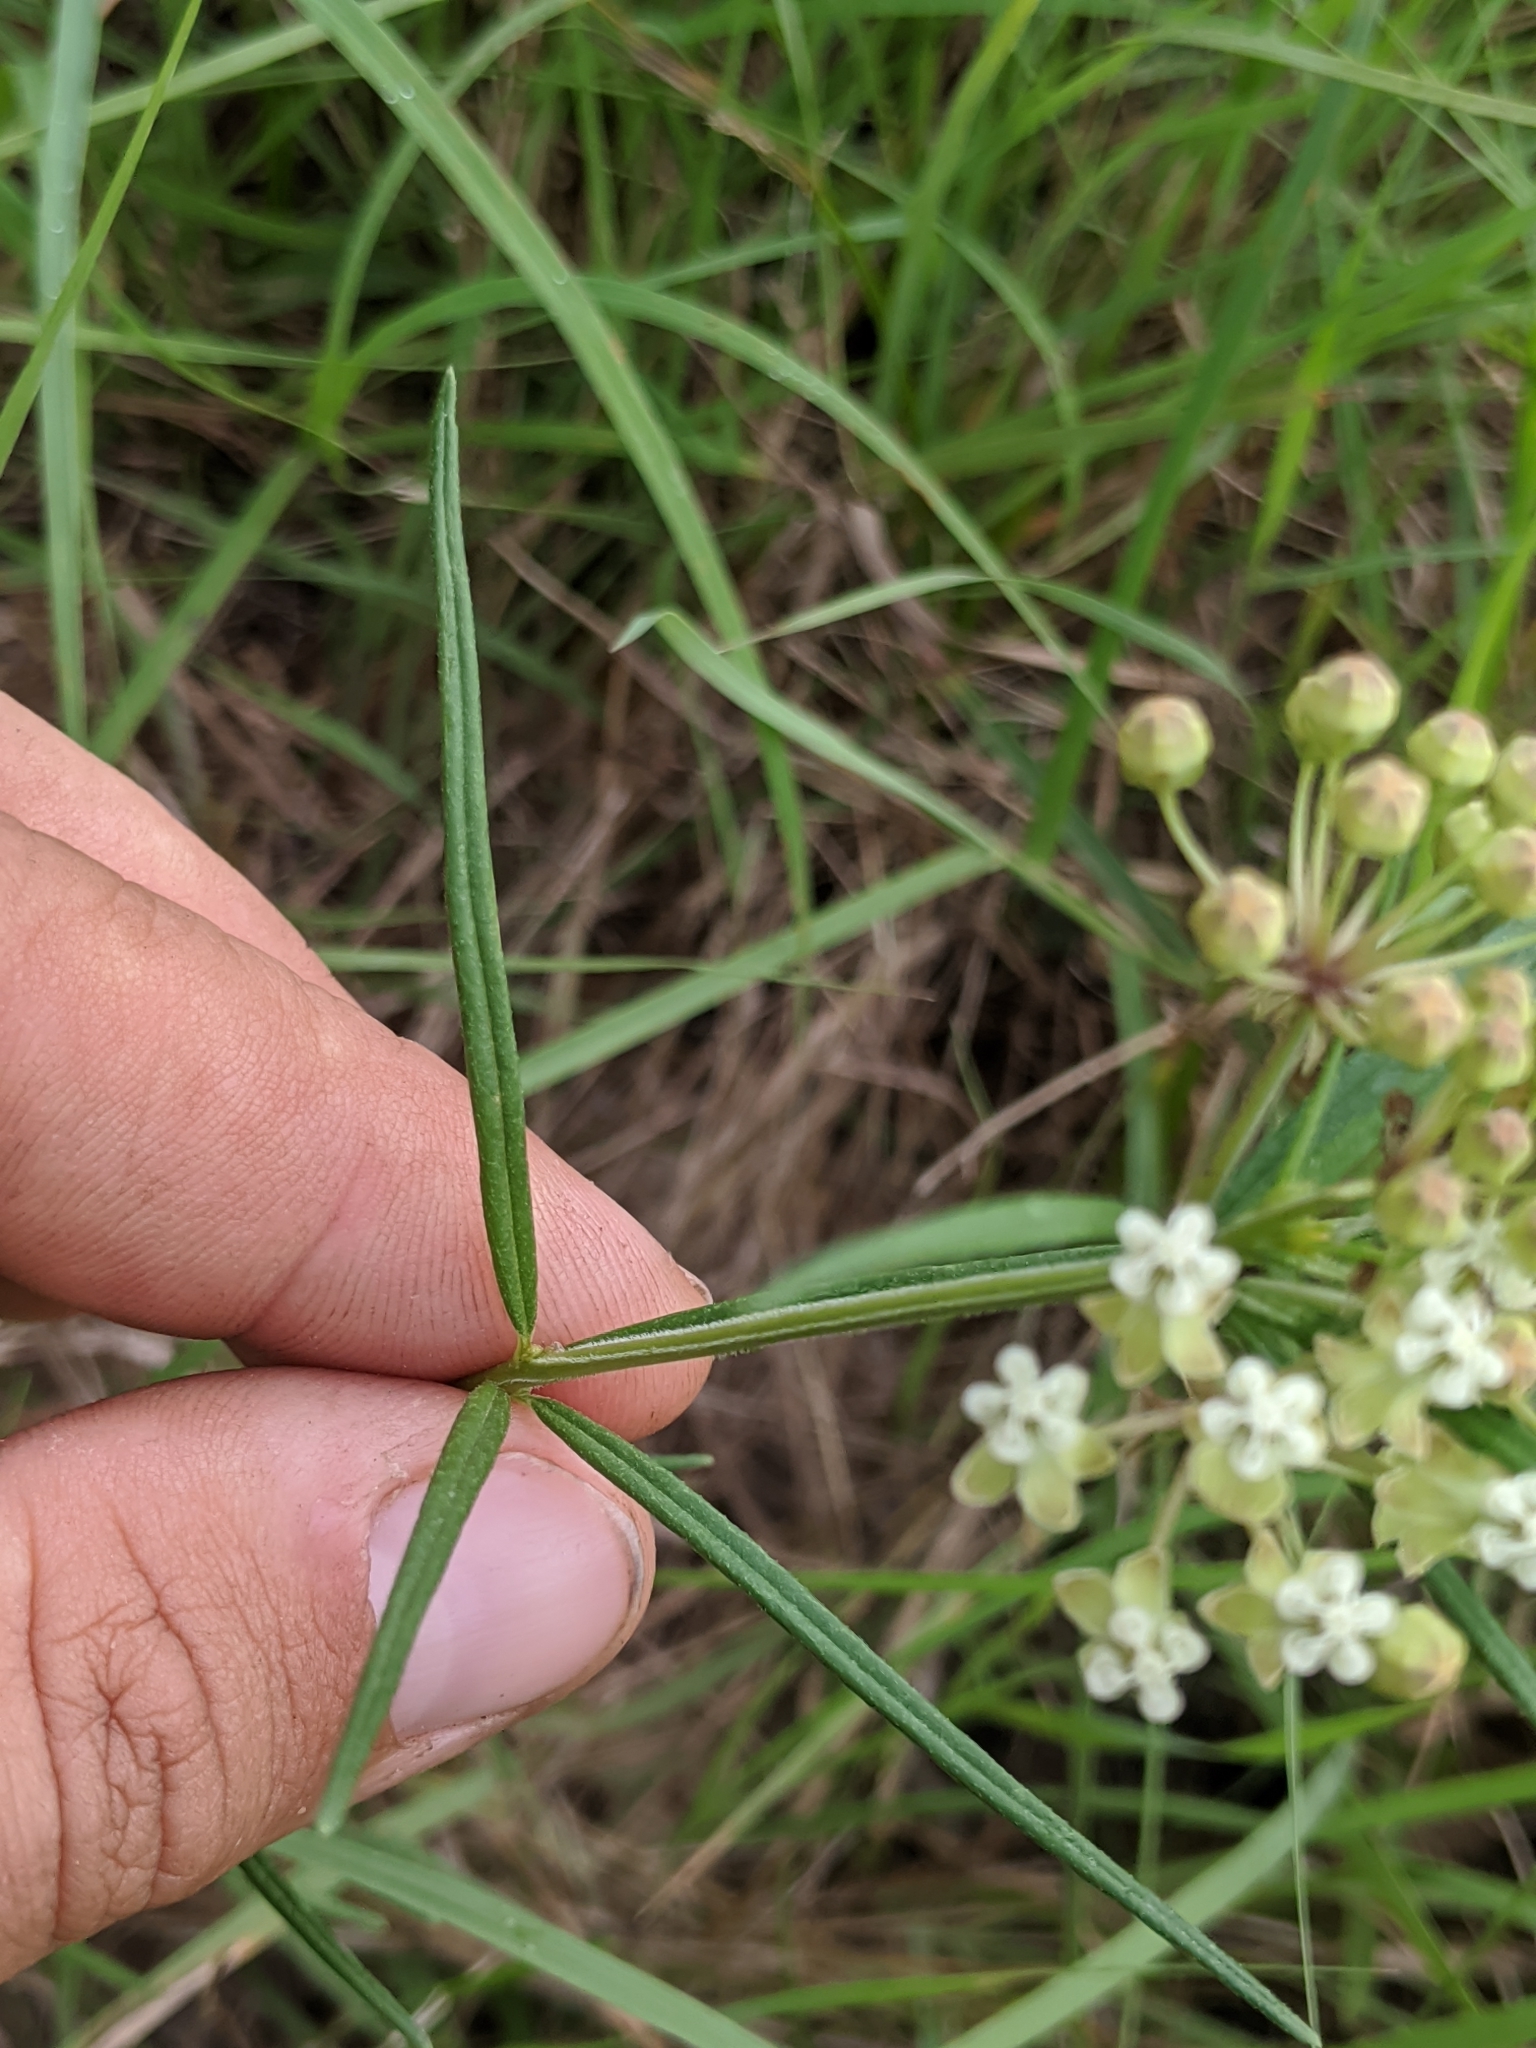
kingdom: Plantae
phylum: Tracheophyta
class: Magnoliopsida
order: Gentianales
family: Apocynaceae
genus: Asclepias
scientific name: Asclepias verticillata
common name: Eastern whorled milkweed
